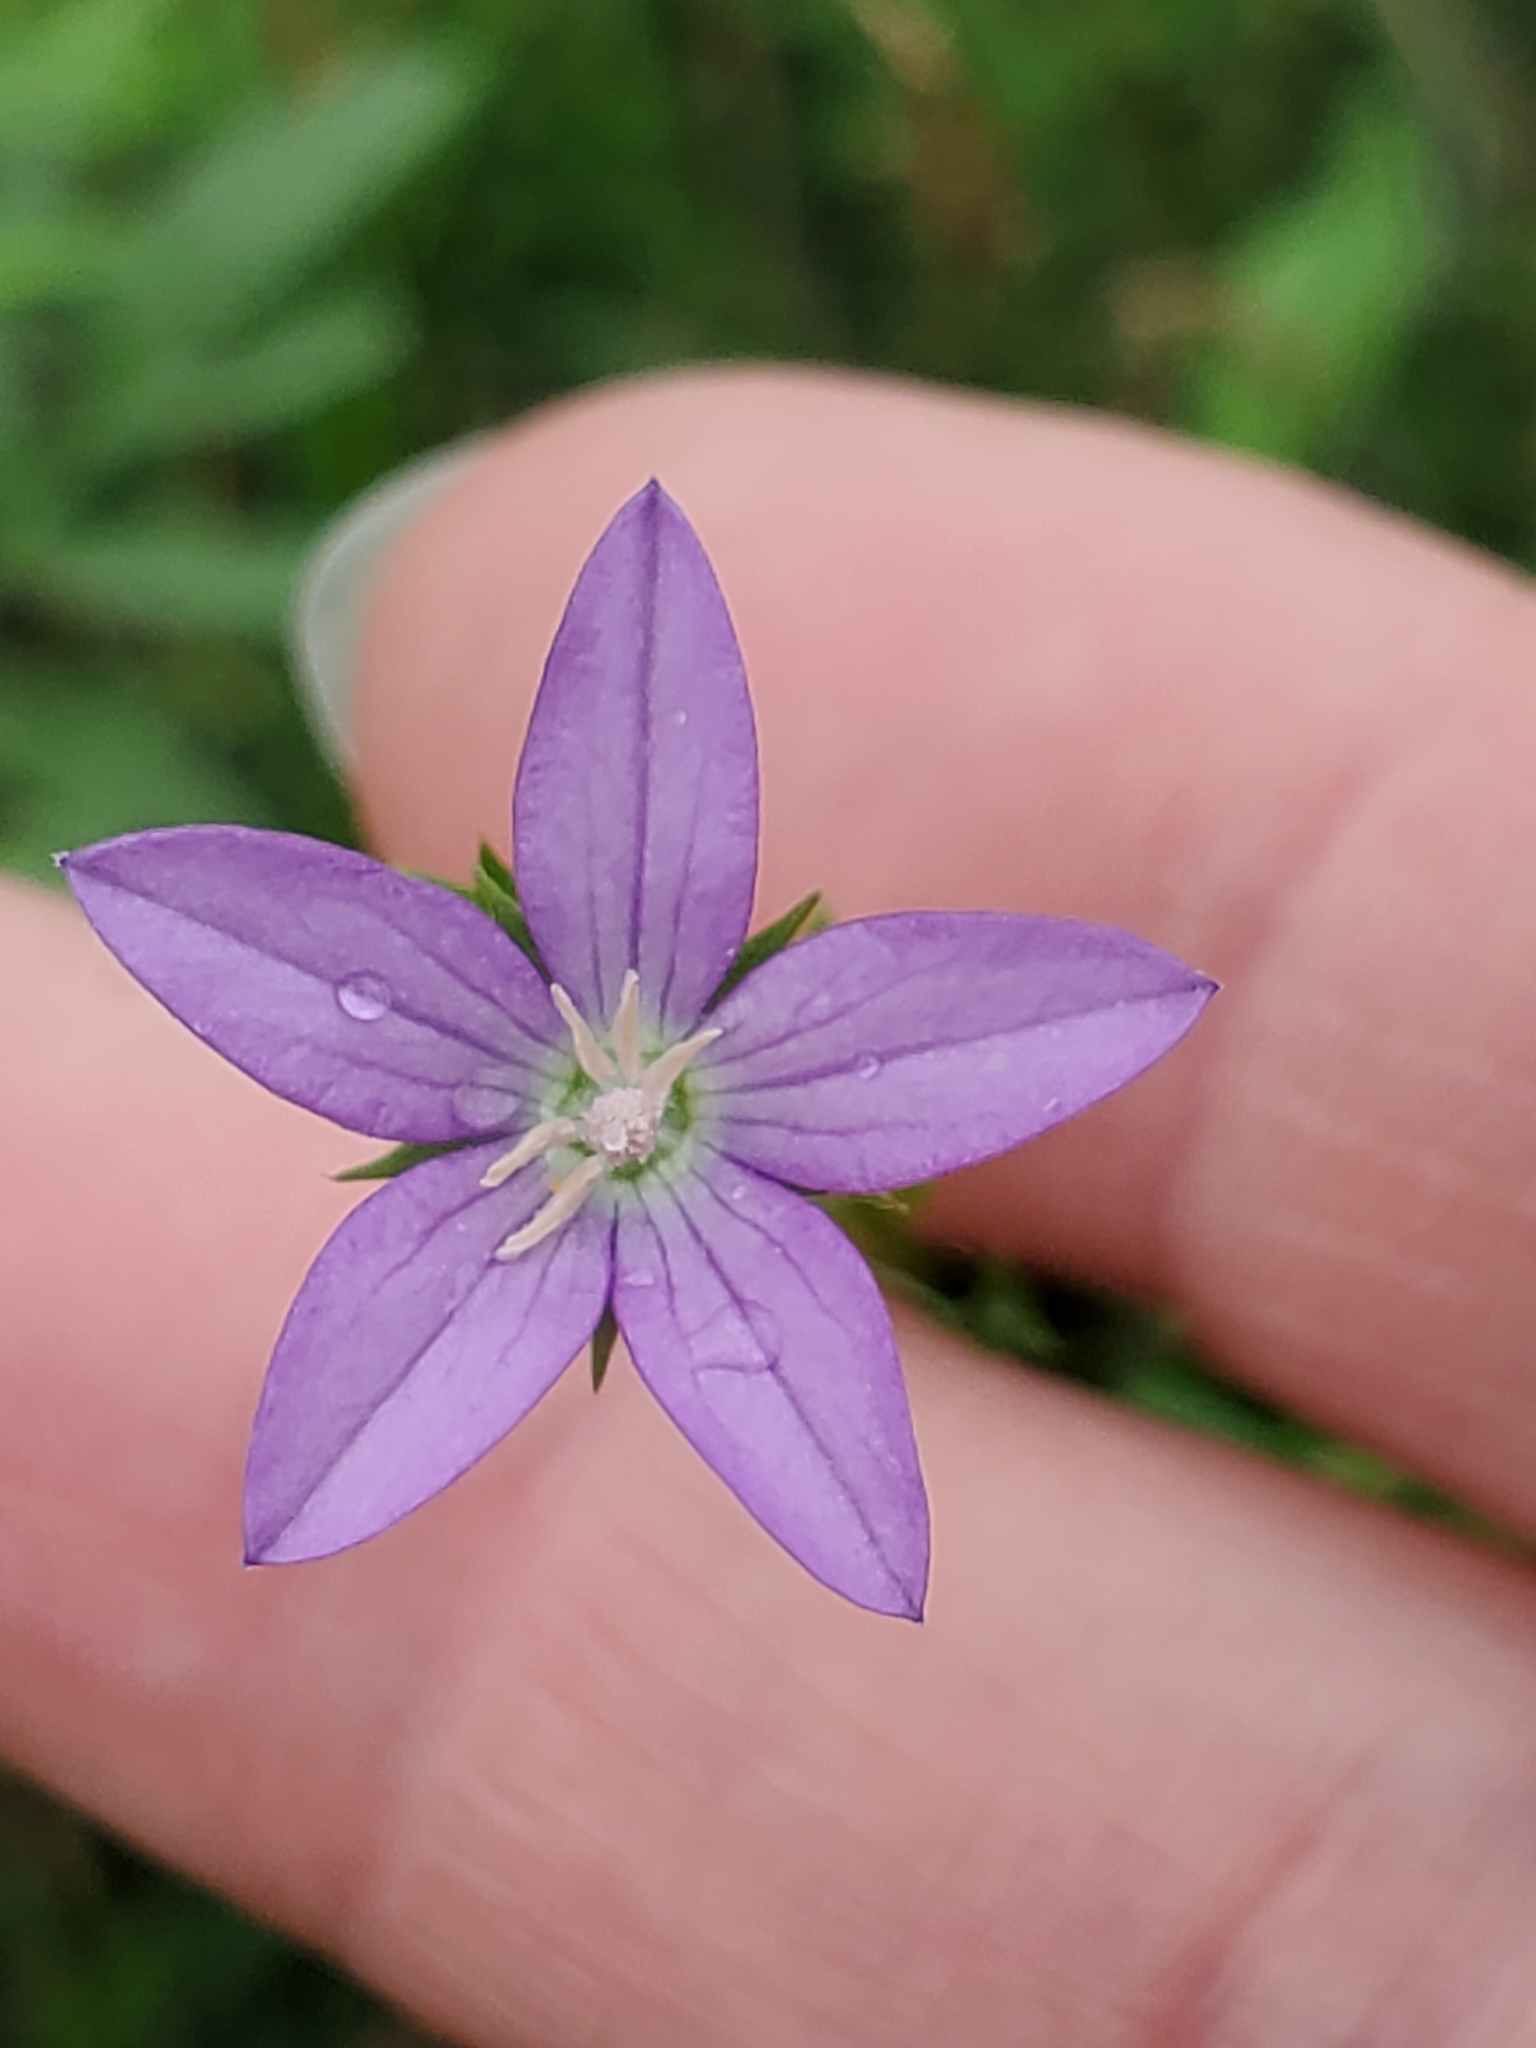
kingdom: Plantae
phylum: Tracheophyta
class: Magnoliopsida
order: Asterales
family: Campanulaceae
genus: Triodanis
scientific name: Triodanis biflora
